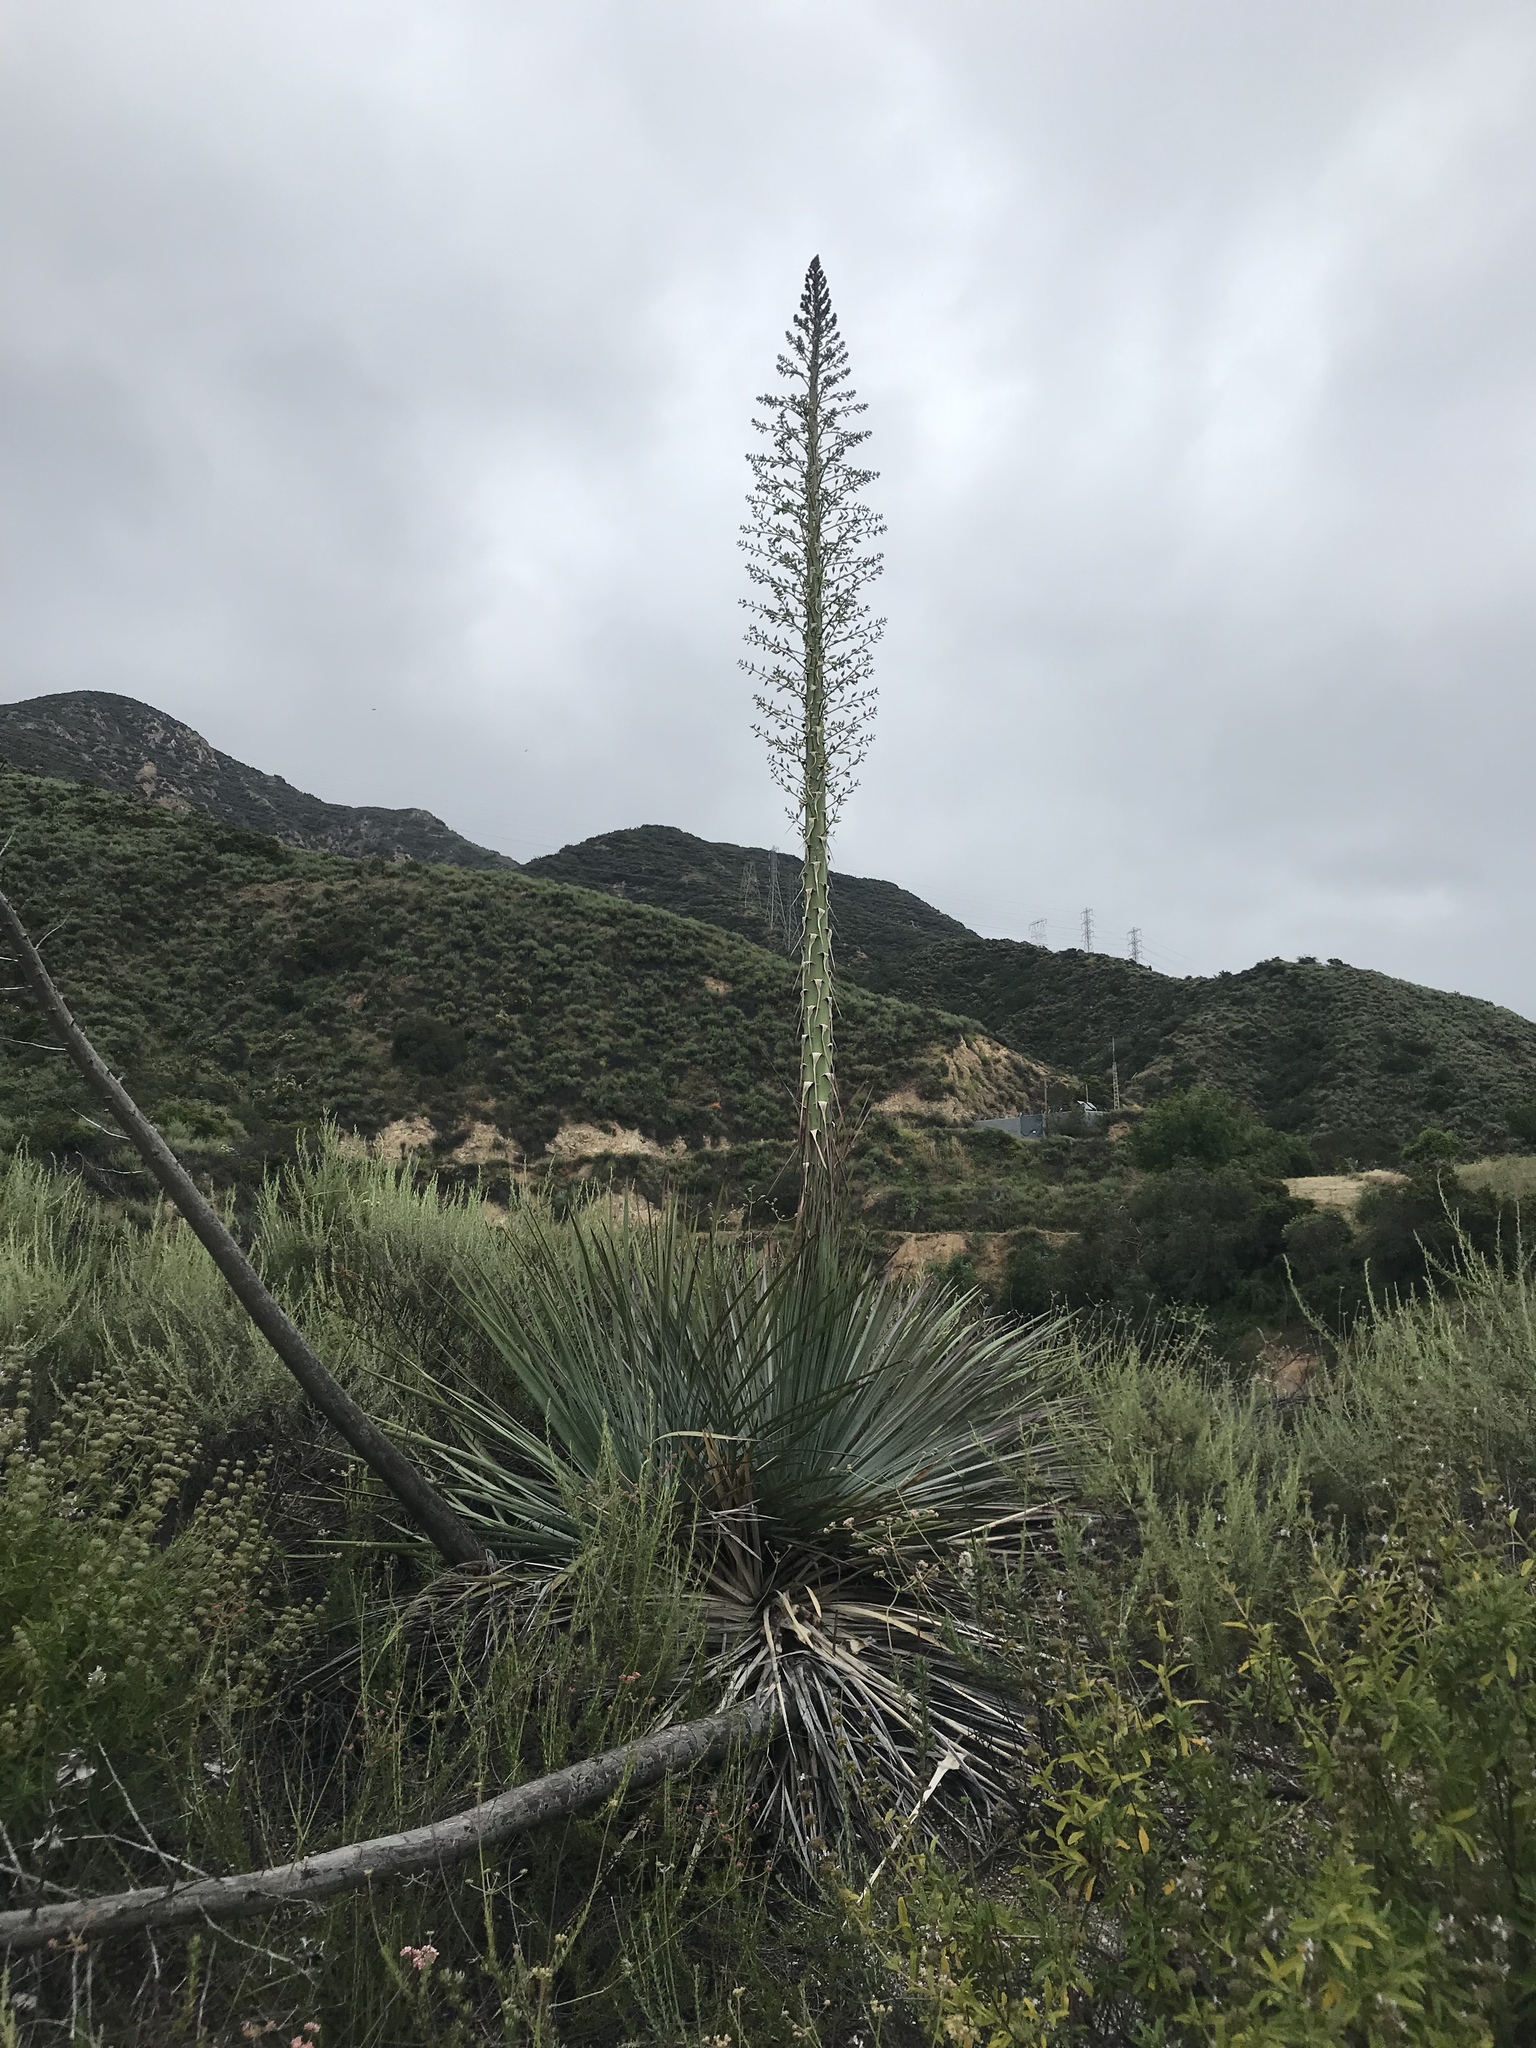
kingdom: Plantae
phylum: Tracheophyta
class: Liliopsida
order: Asparagales
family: Asparagaceae
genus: Hesperoyucca
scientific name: Hesperoyucca whipplei
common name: Our lord's-candle
